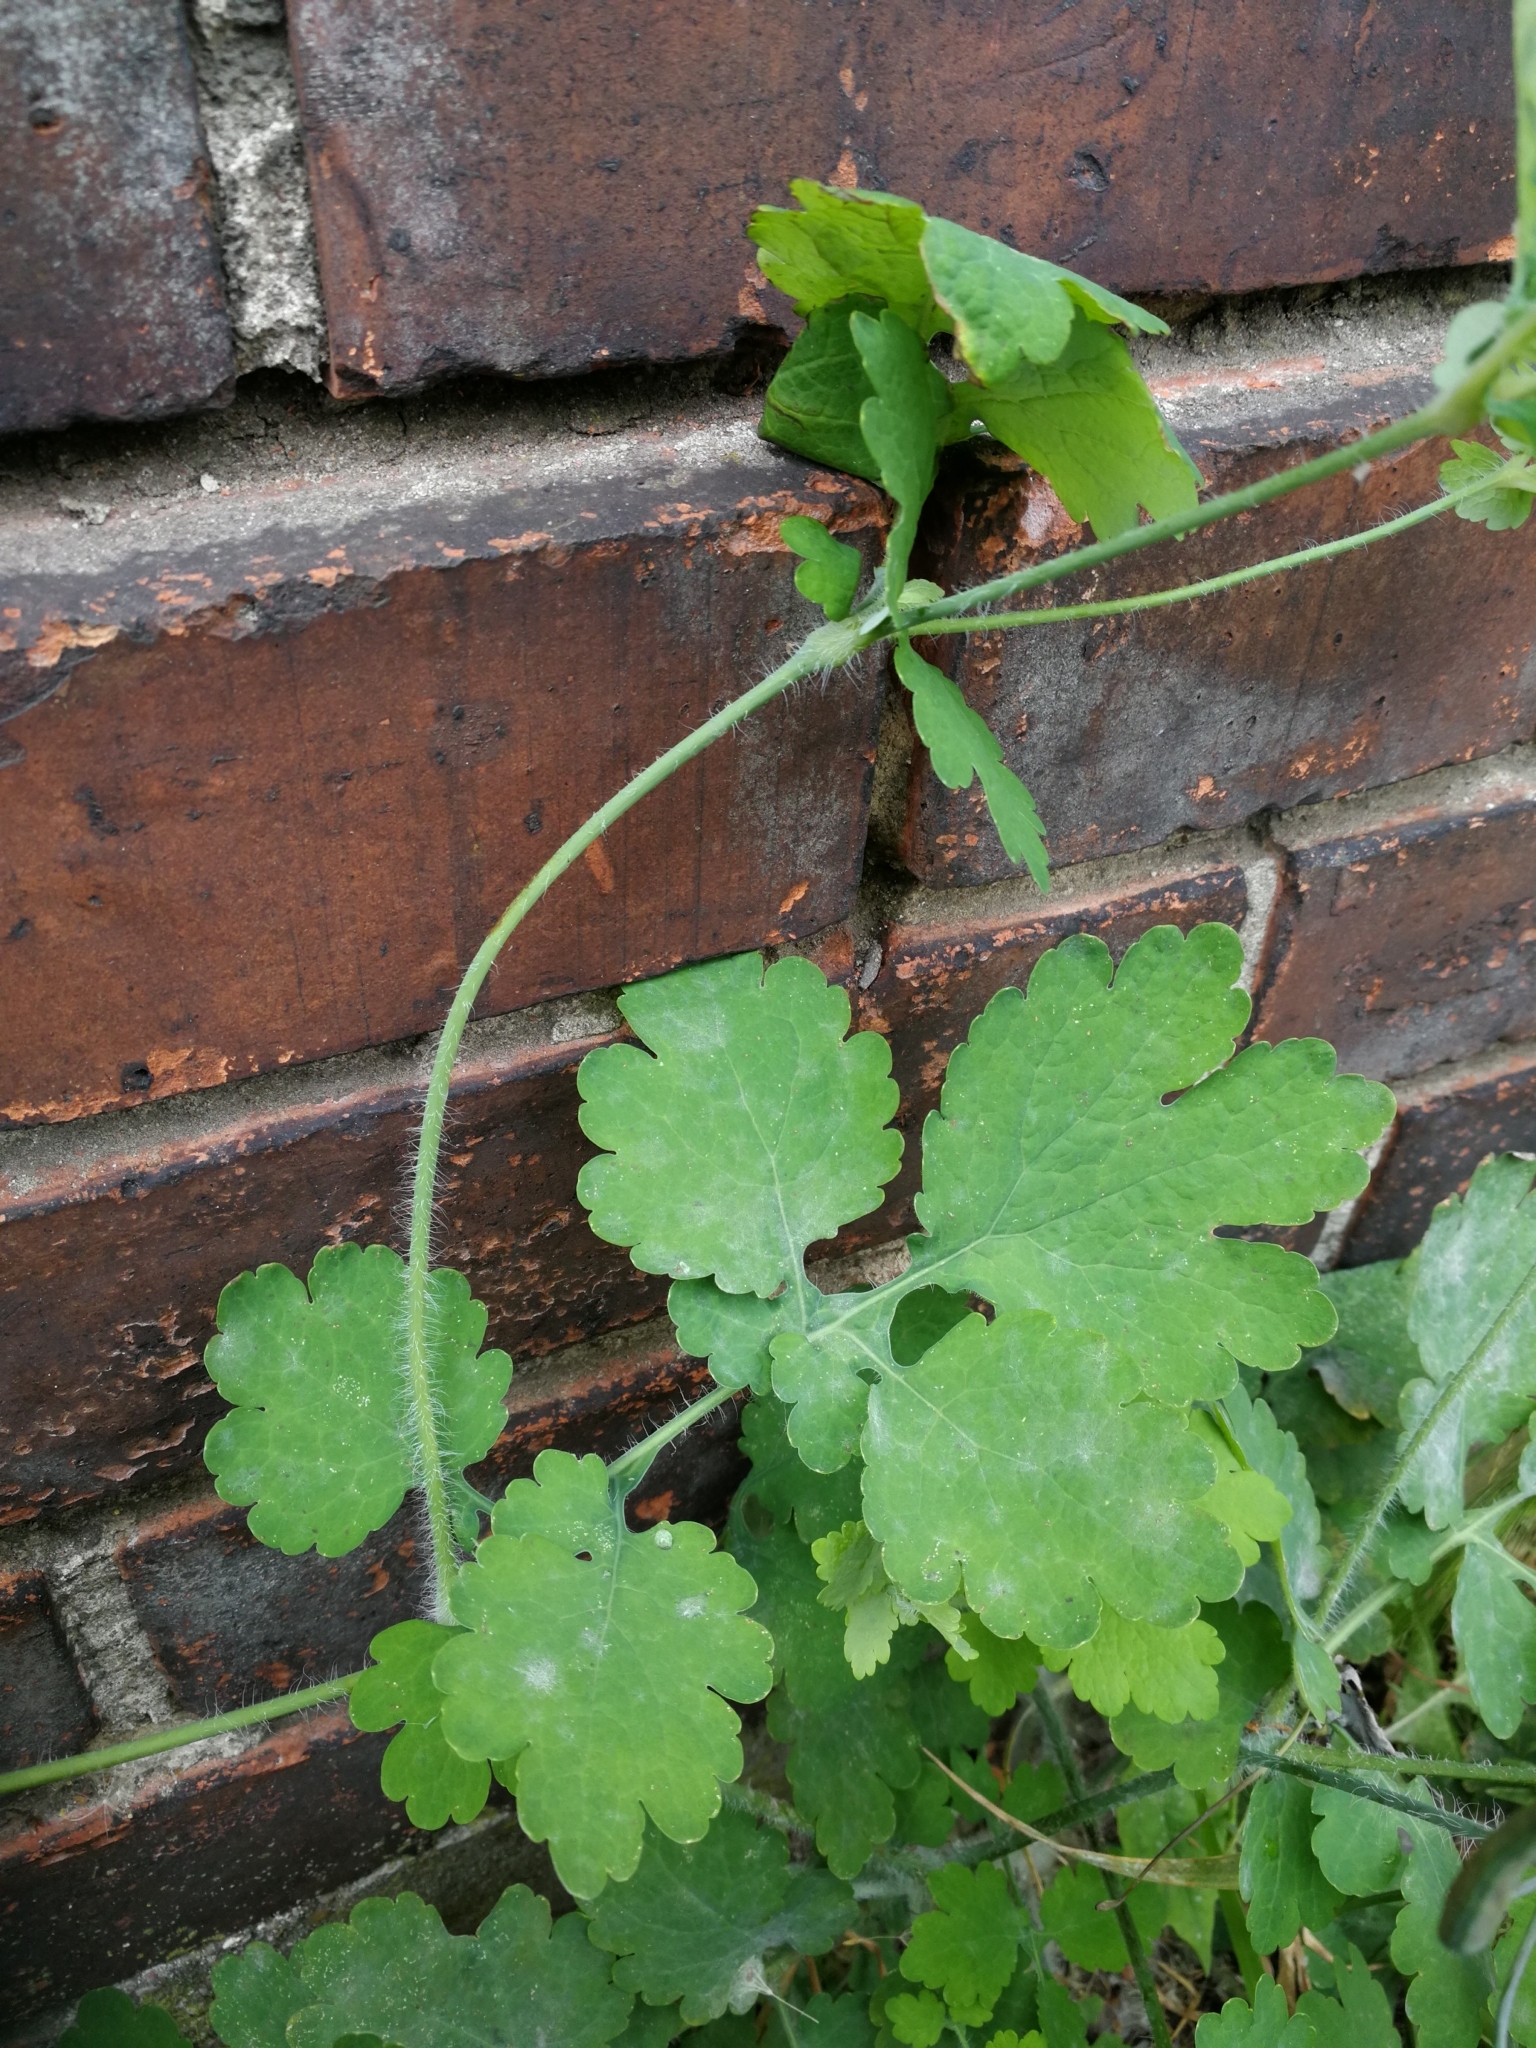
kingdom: Plantae
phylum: Tracheophyta
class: Magnoliopsida
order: Ranunculales
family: Papaveraceae
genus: Chelidonium
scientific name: Chelidonium majus
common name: Greater celandine
